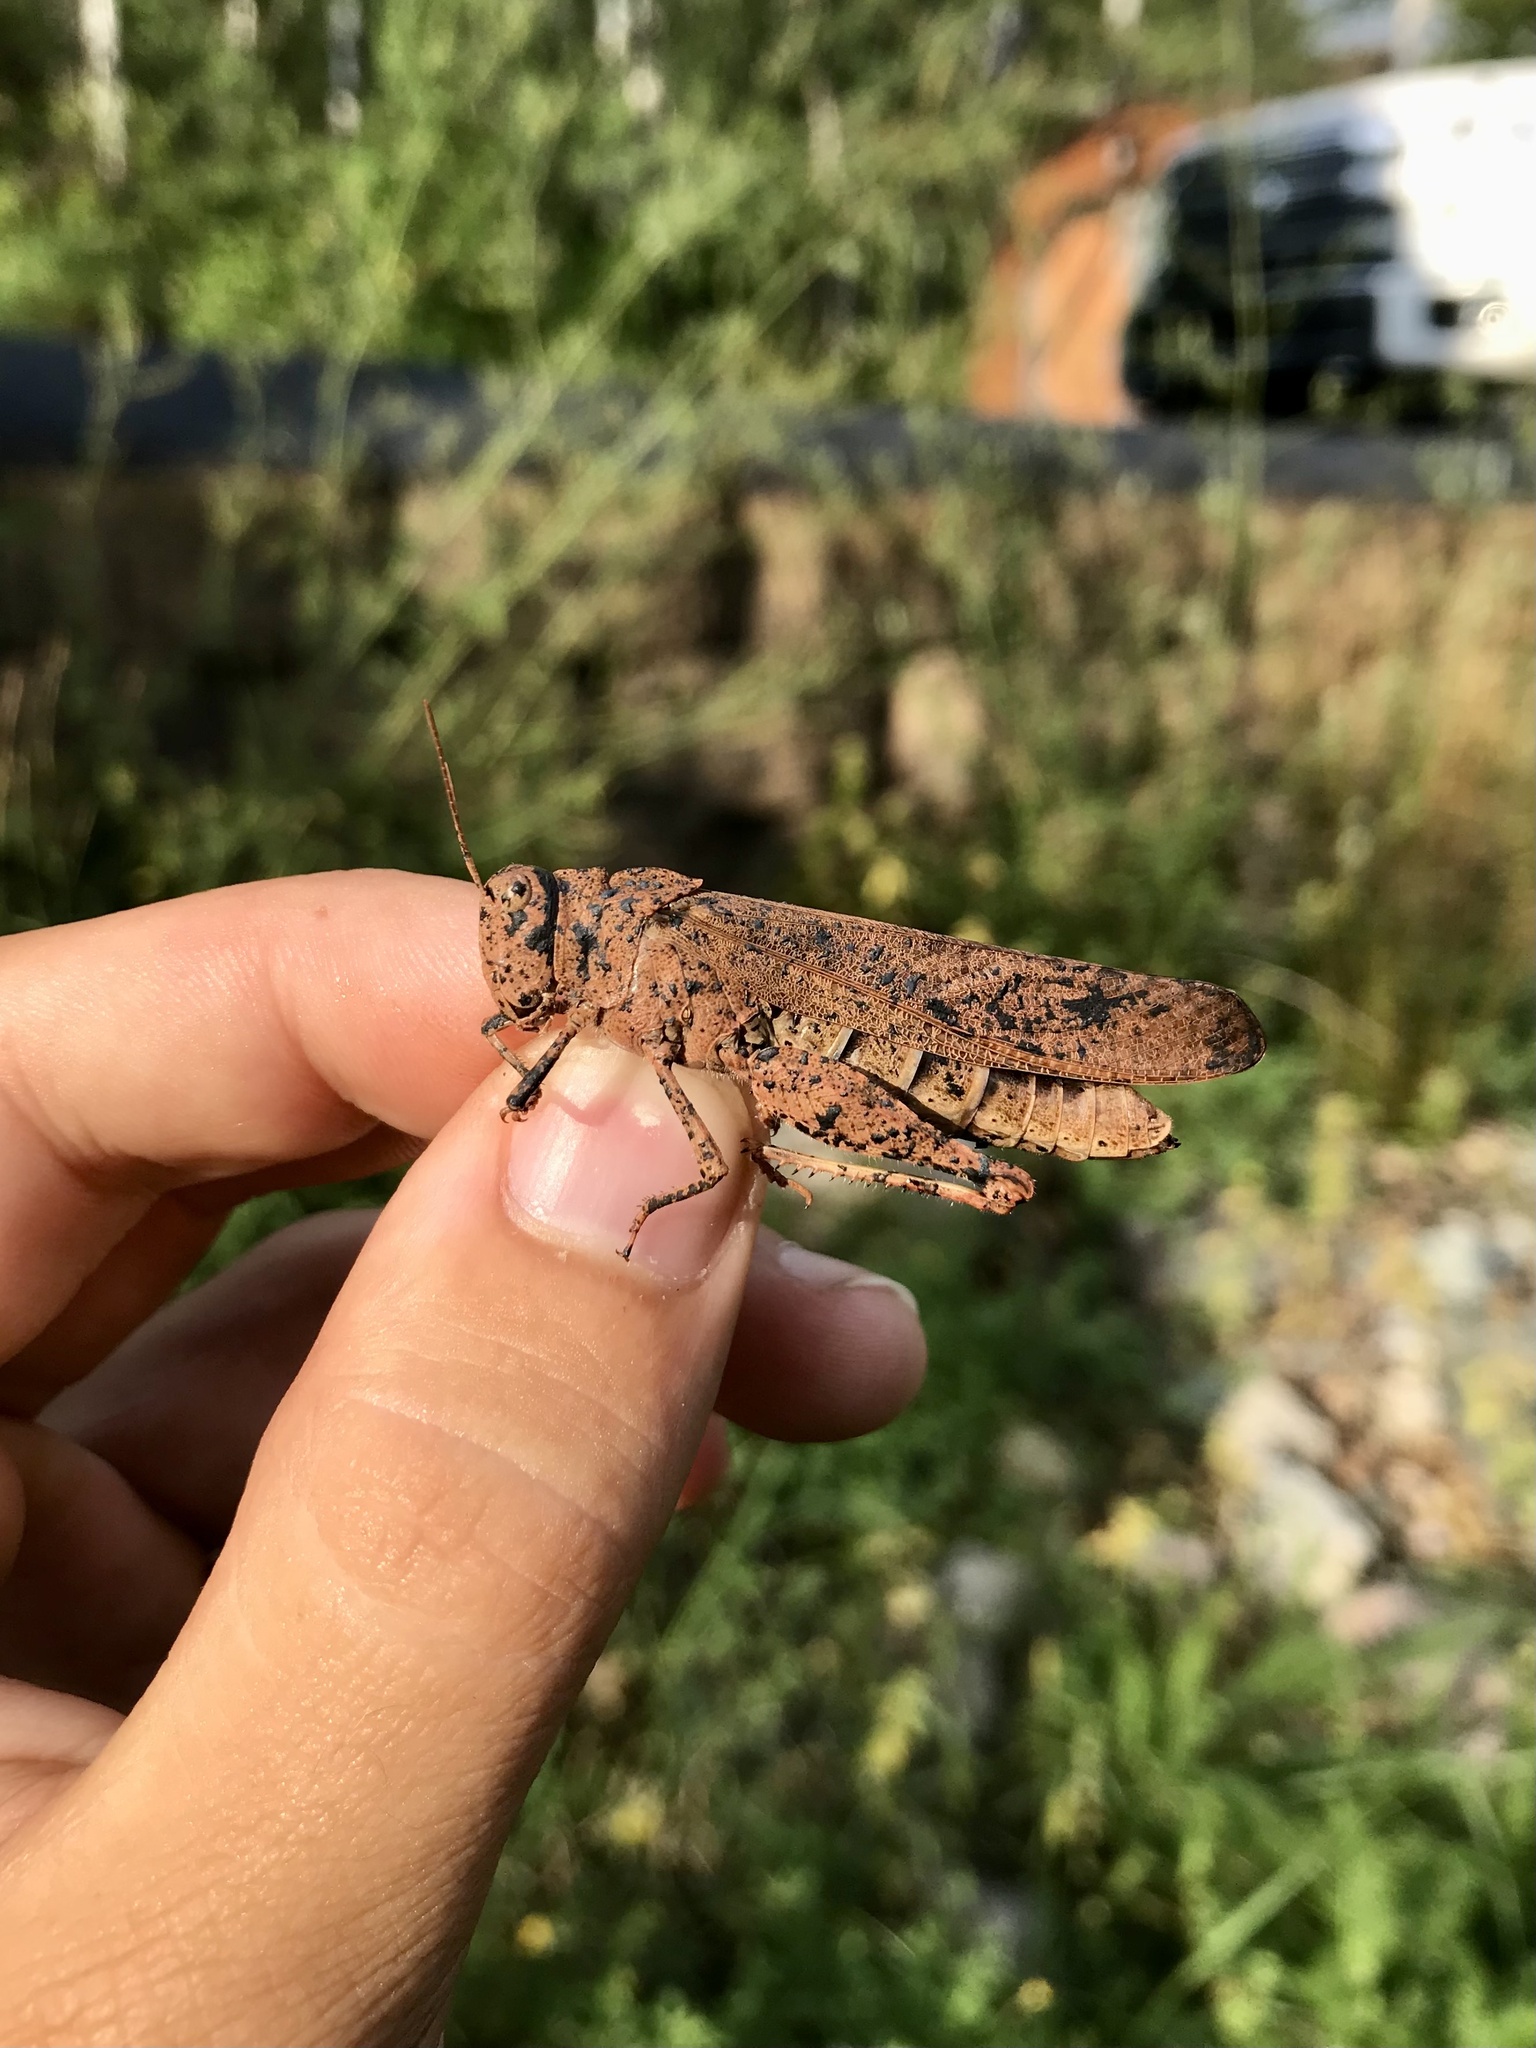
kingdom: Animalia
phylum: Arthropoda
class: Insecta
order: Orthoptera
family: Acrididae
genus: Dissosteira
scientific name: Dissosteira carolina
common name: Carolina grasshopper
